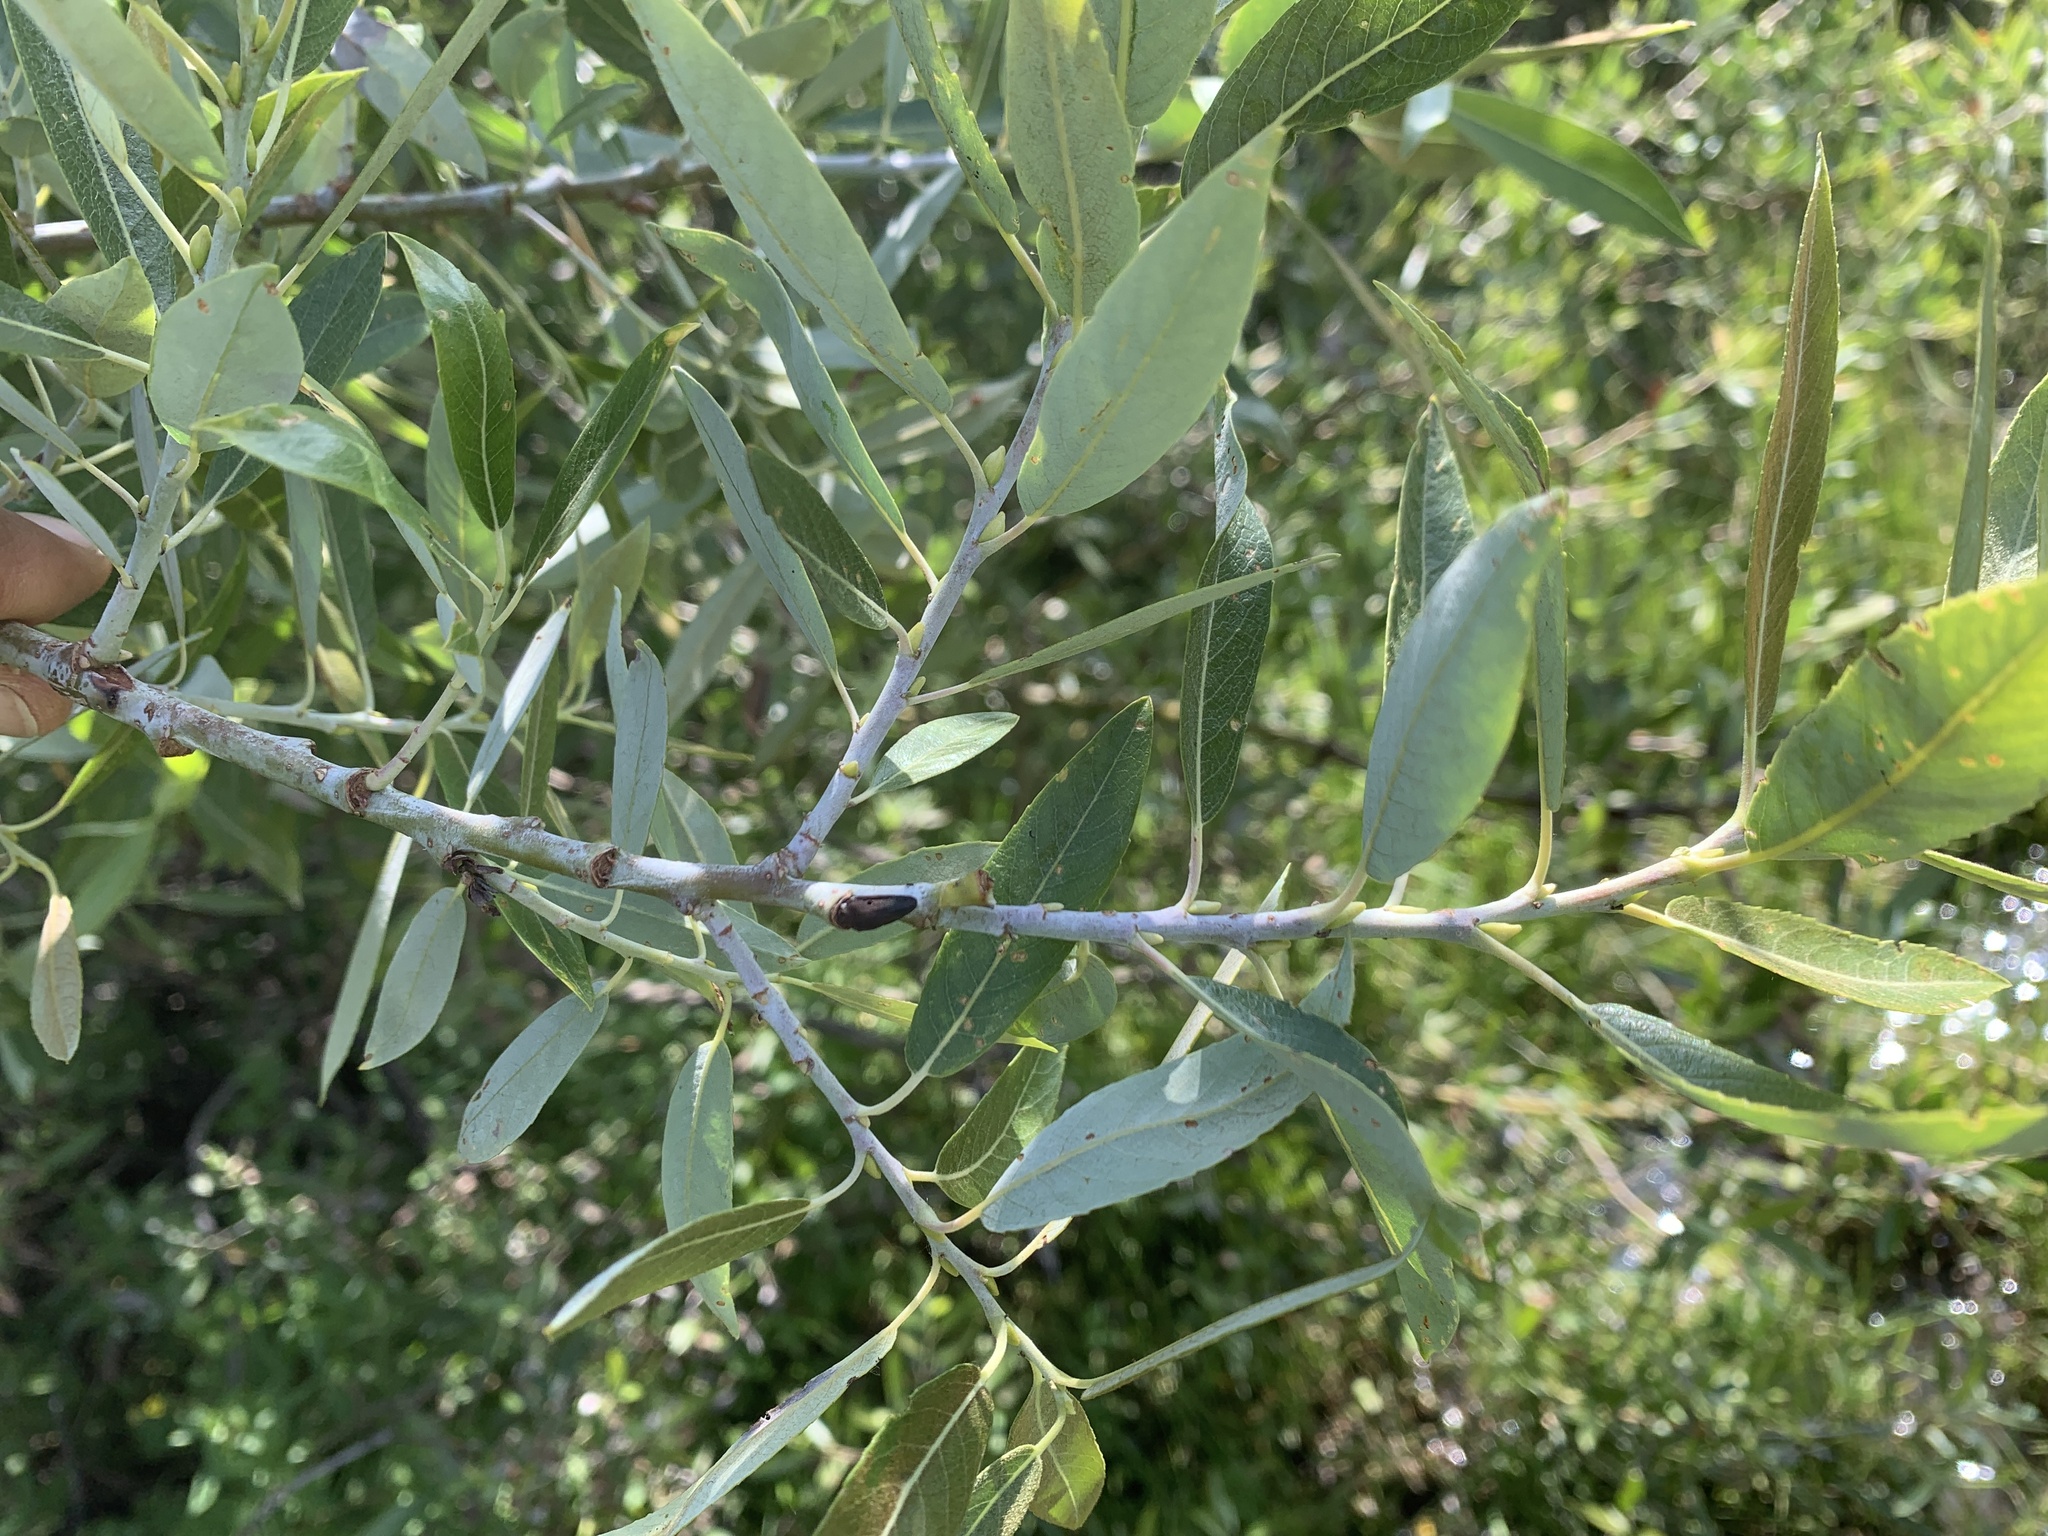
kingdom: Plantae
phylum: Tracheophyta
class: Magnoliopsida
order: Malpighiales
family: Salicaceae
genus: Salix
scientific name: Salix lemmonii
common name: Lemmon's willow
